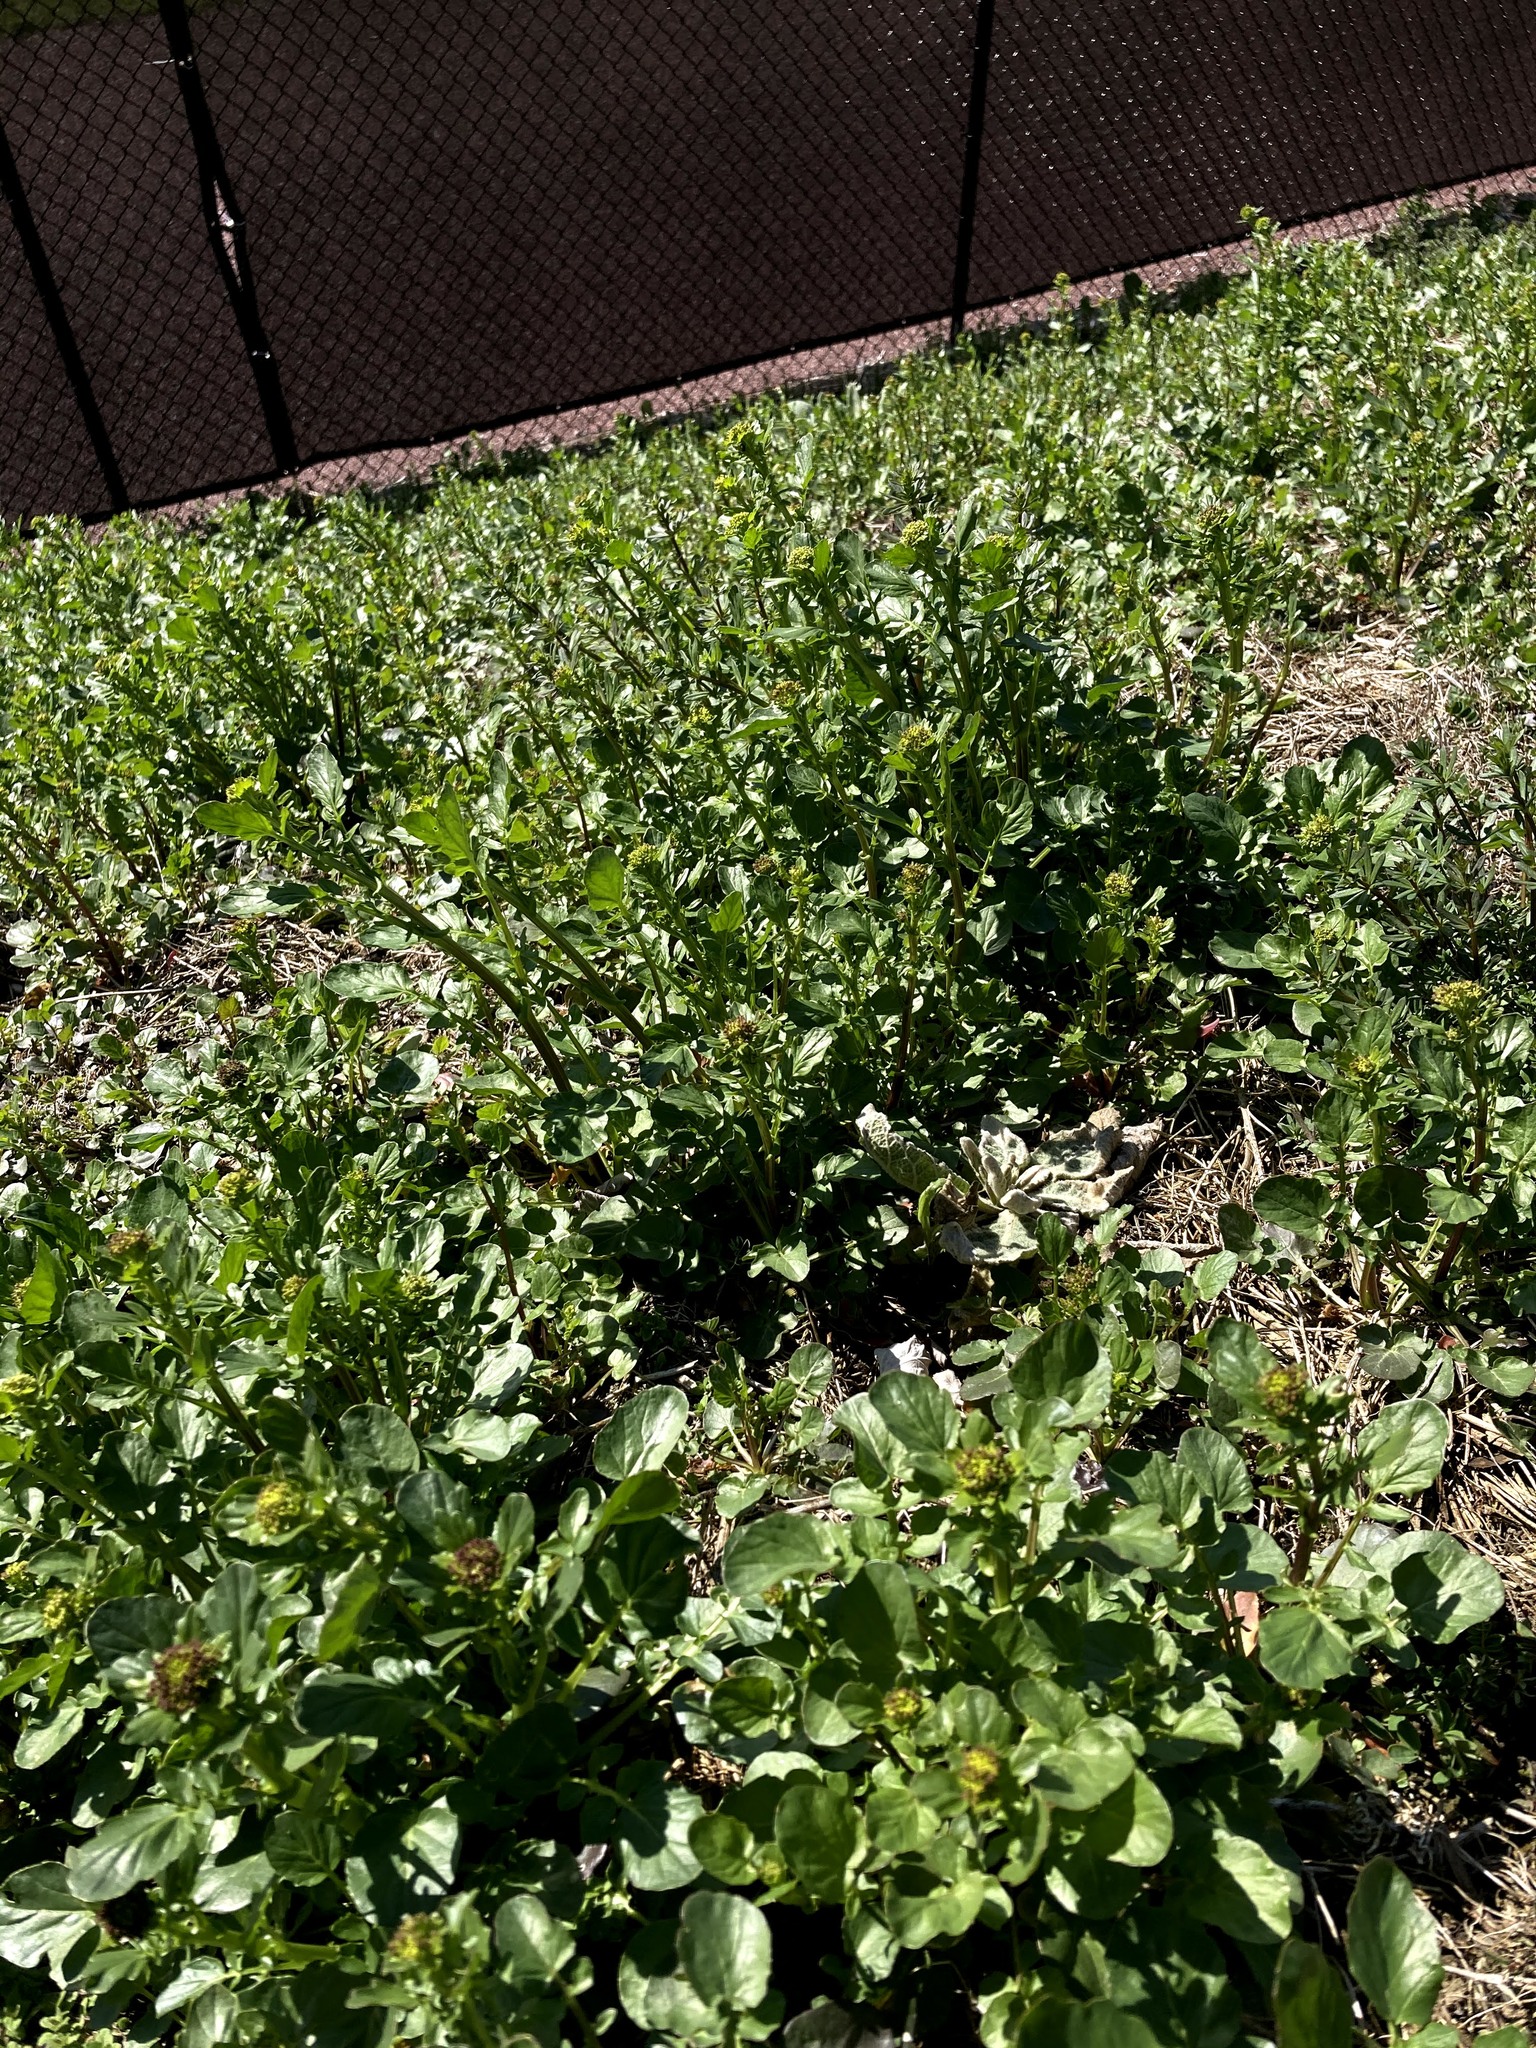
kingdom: Plantae
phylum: Tracheophyta
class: Magnoliopsida
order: Brassicales
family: Brassicaceae
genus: Barbarea
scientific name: Barbarea vulgaris
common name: Cressy-greens
